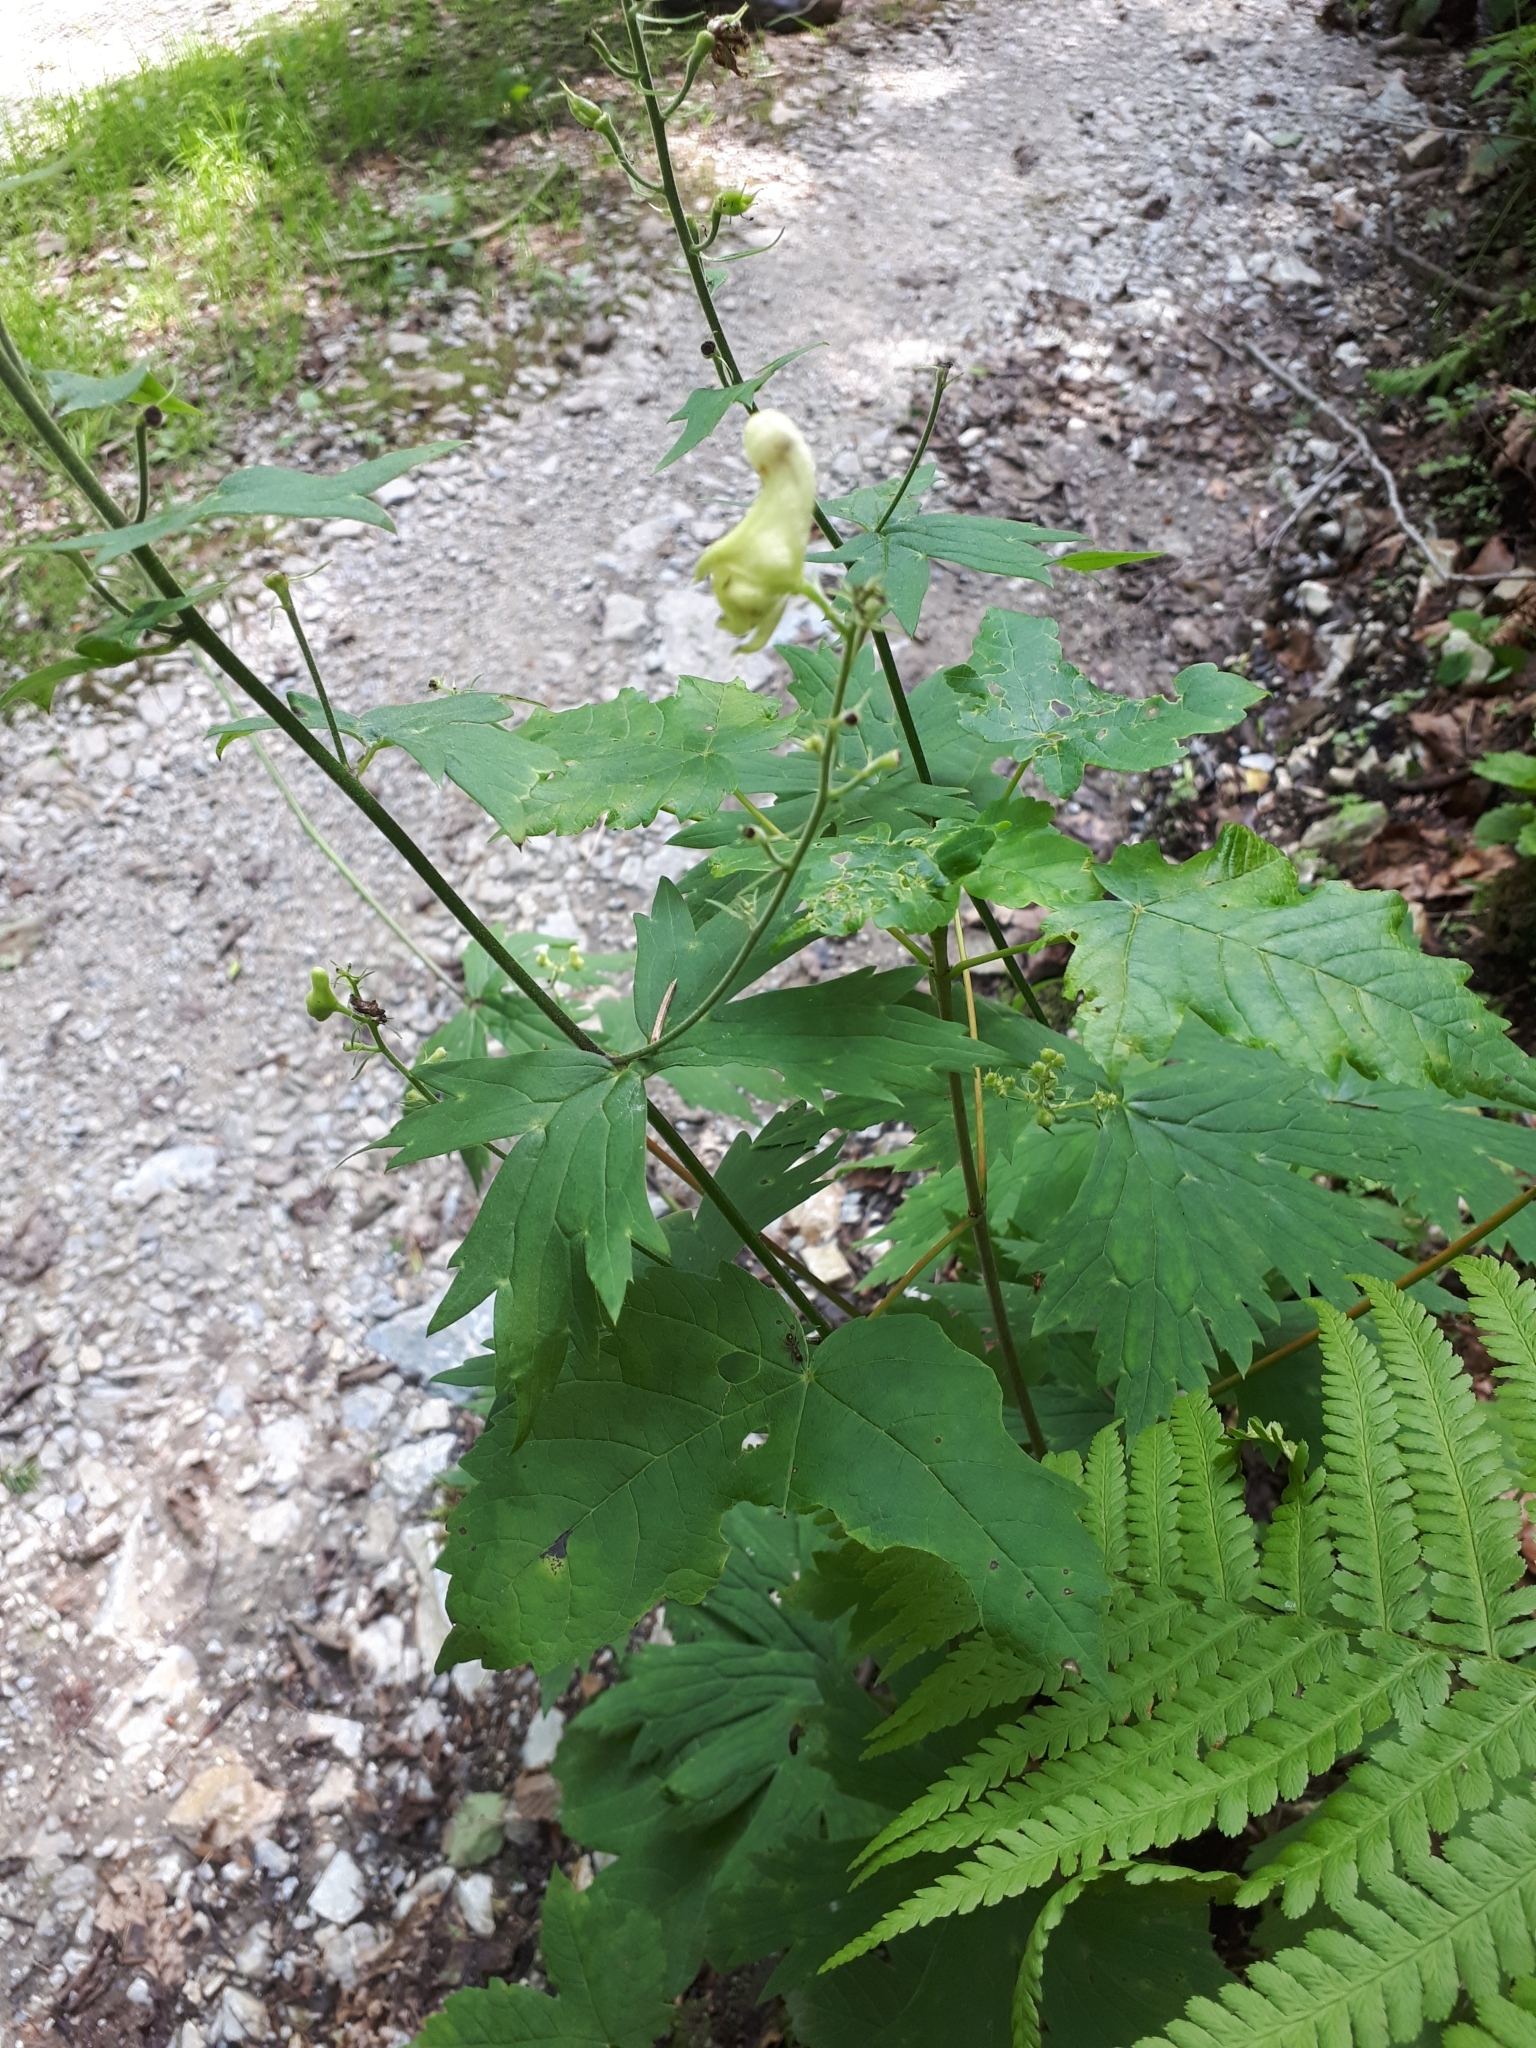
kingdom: Plantae
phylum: Tracheophyta
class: Magnoliopsida
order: Ranunculales
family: Ranunculaceae
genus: Aconitum
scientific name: Aconitum lycoctonum
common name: Wolf's-bane
